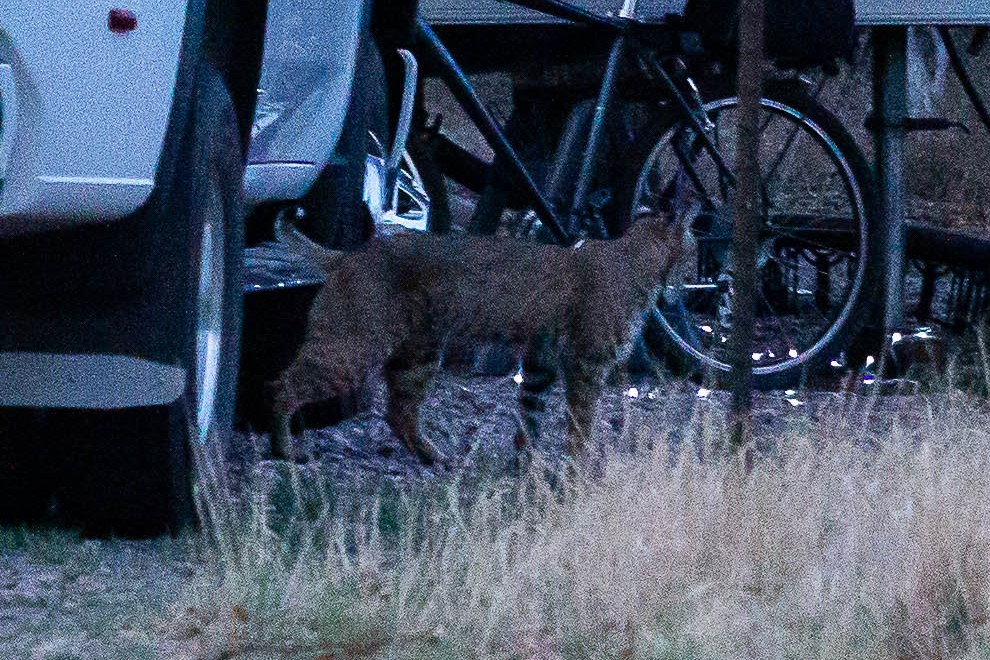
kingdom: Animalia
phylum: Chordata
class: Mammalia
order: Carnivora
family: Felidae
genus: Lynx
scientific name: Lynx rufus
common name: Bobcat
